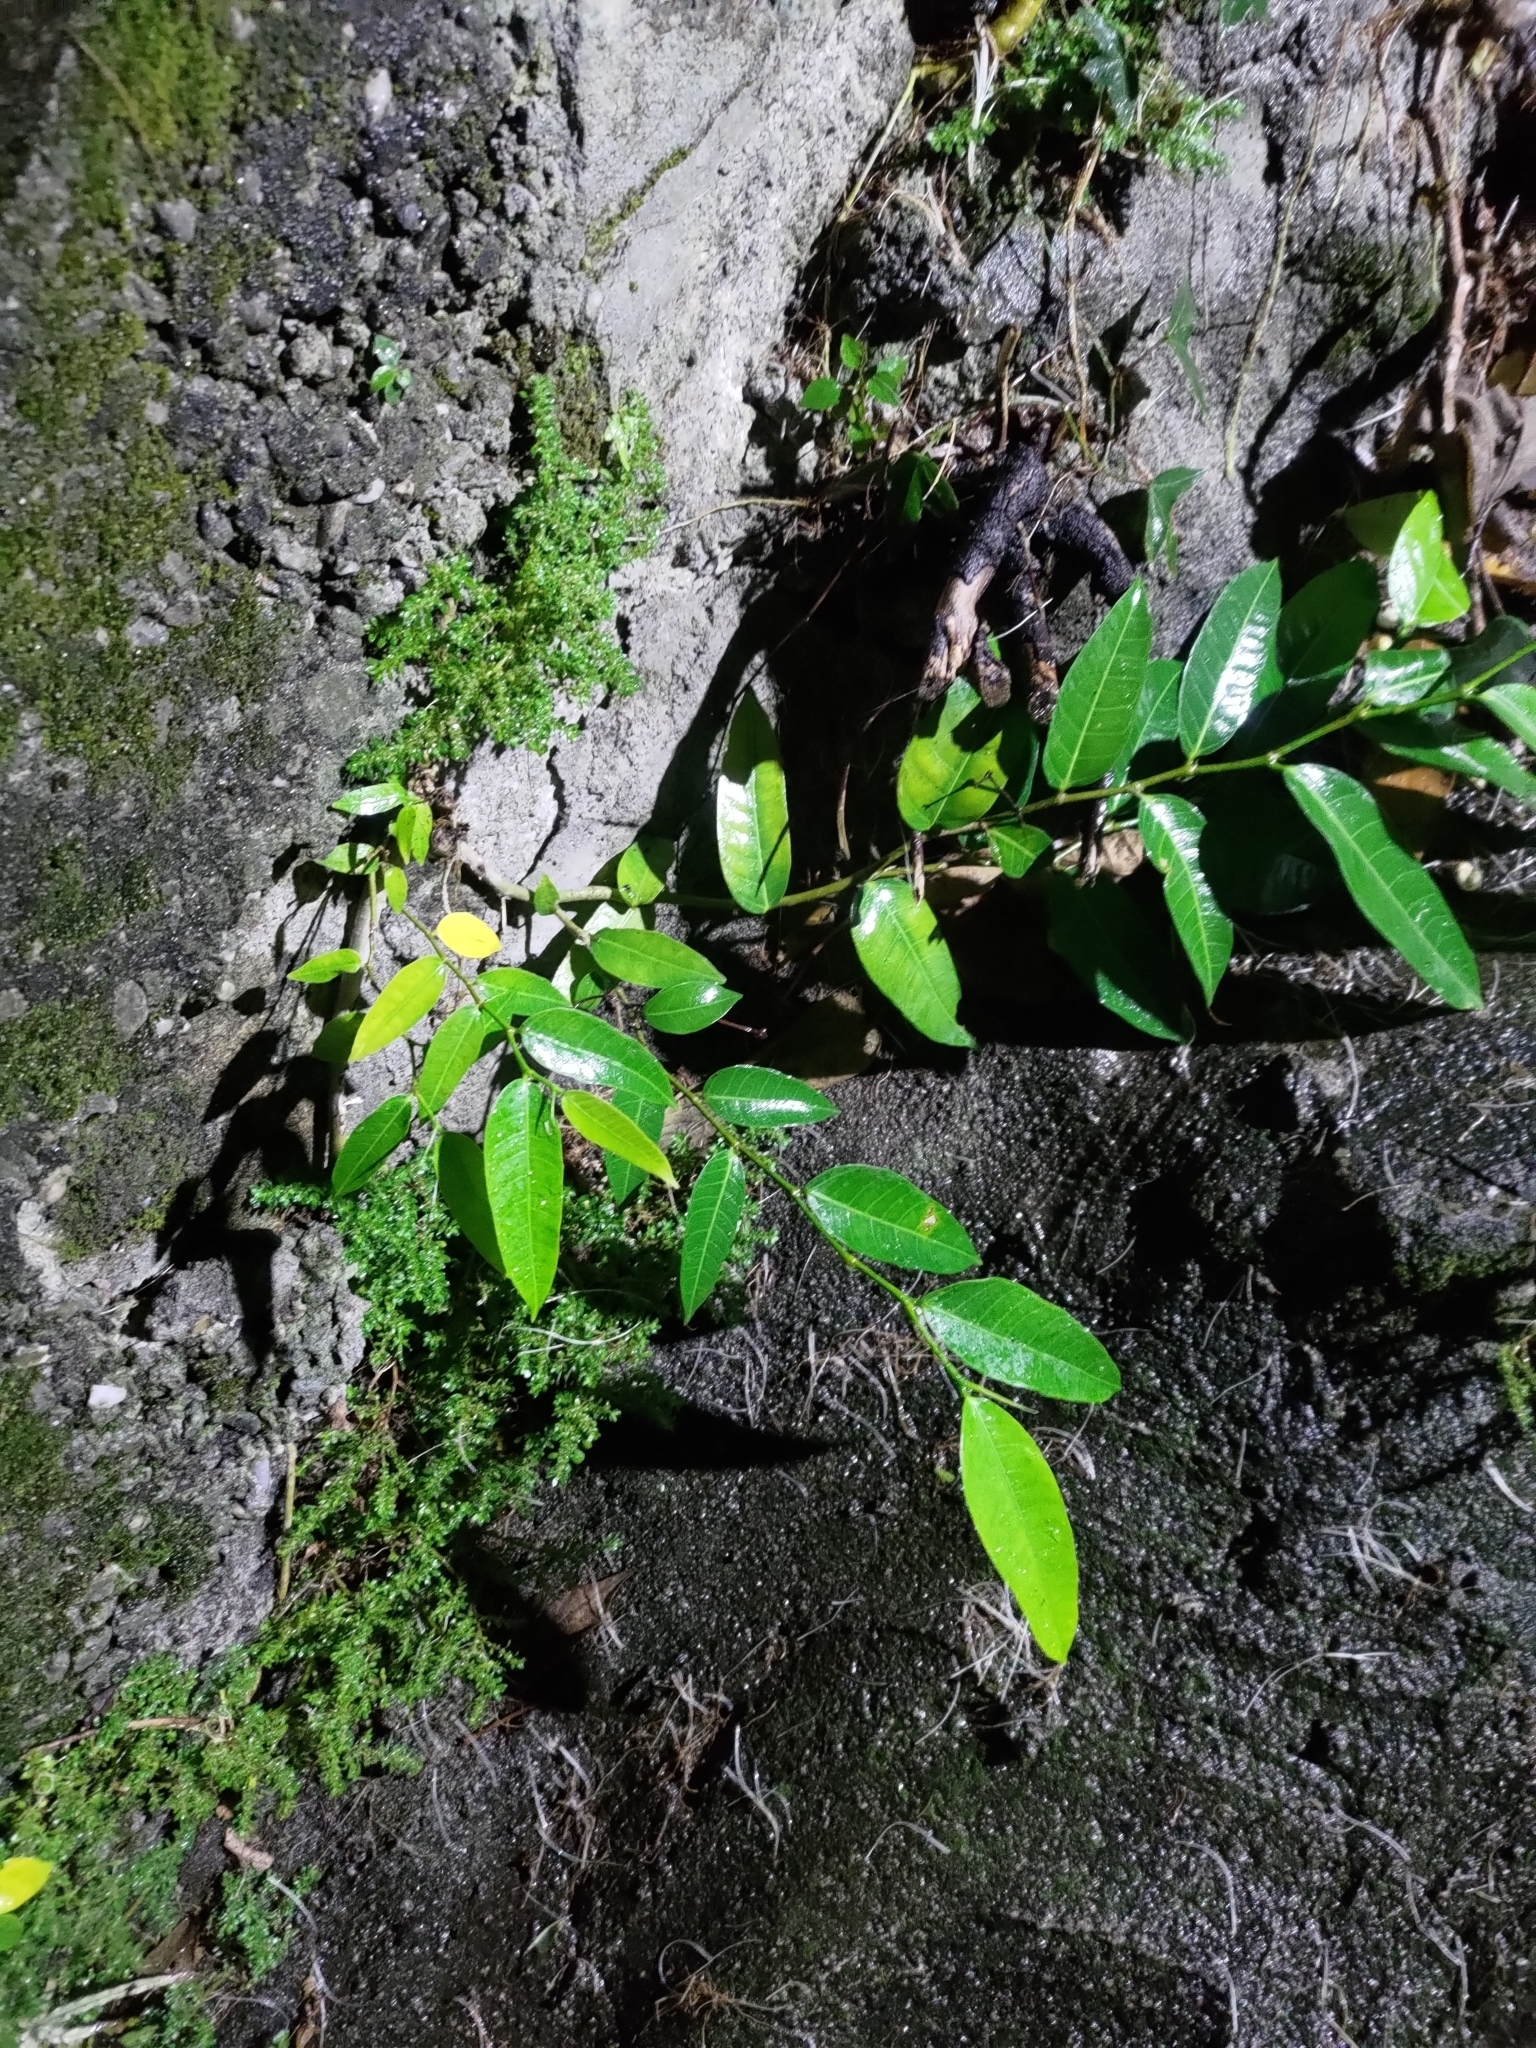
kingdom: Plantae
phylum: Tracheophyta
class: Magnoliopsida
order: Rosales
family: Moraceae
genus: Ficus
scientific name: Ficus virgata
